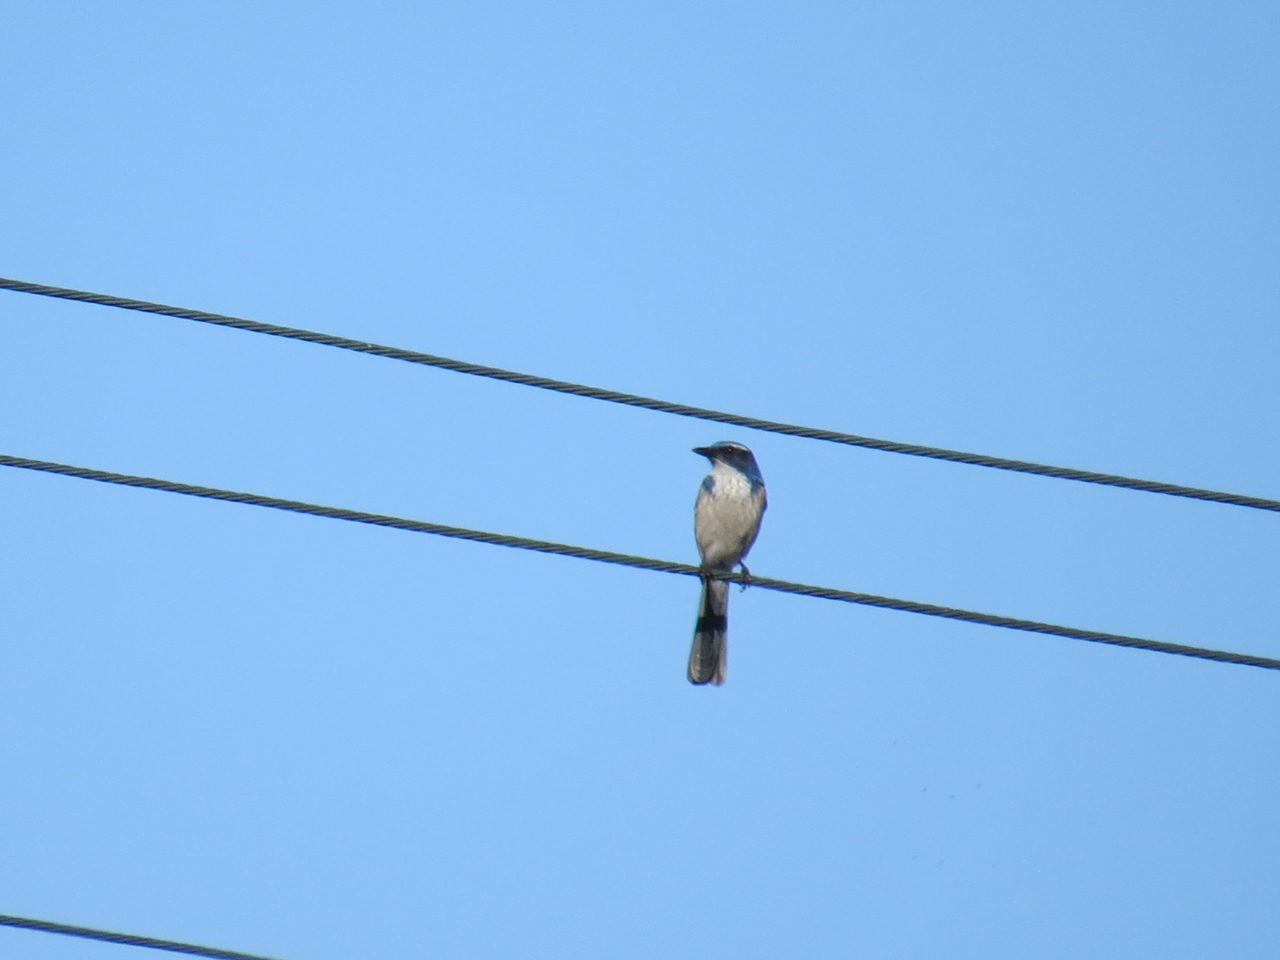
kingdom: Animalia
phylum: Chordata
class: Aves
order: Passeriformes
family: Corvidae
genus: Aphelocoma
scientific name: Aphelocoma californica
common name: California scrub-jay
